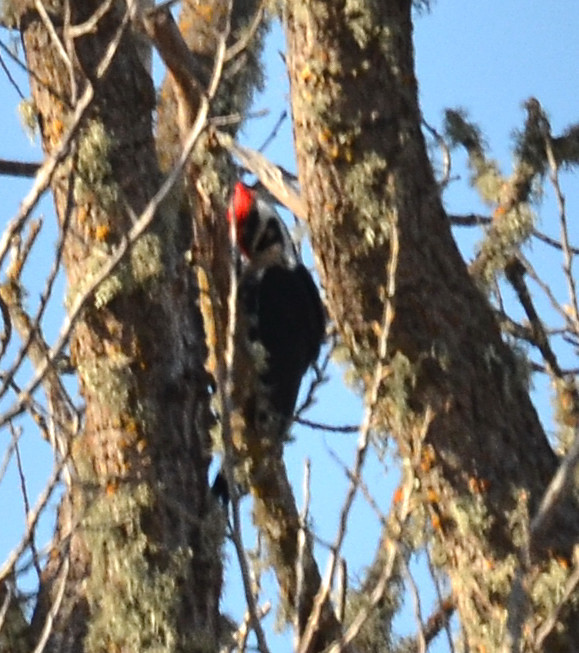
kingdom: Animalia
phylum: Chordata
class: Aves
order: Piciformes
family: Picidae
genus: Dryocopus
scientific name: Dryocopus pileatus
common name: Pileated woodpecker
